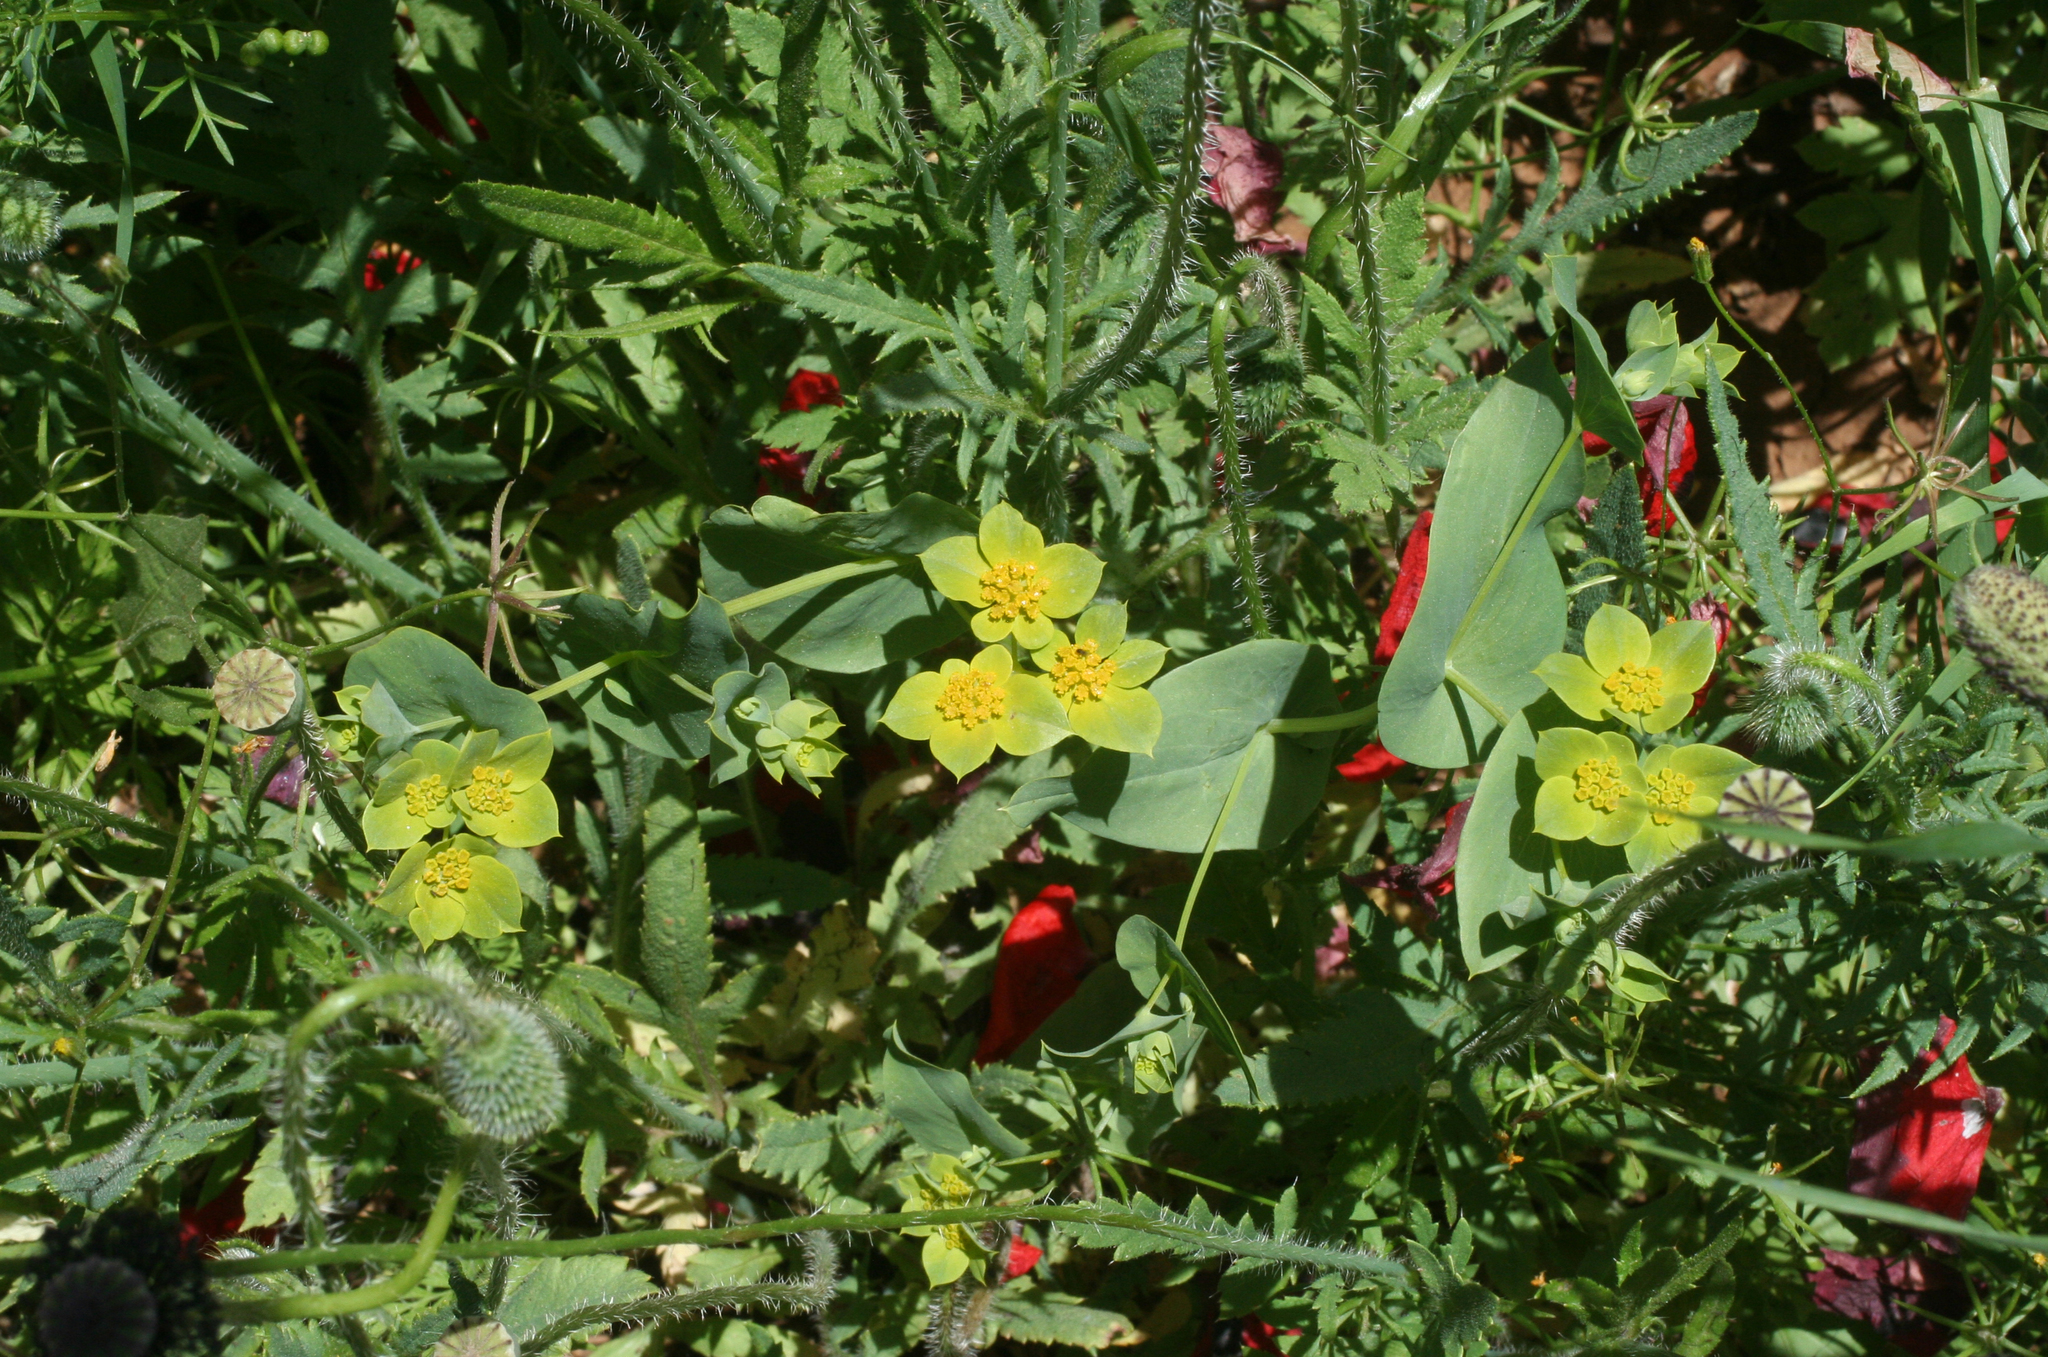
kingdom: Plantae
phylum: Tracheophyta
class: Magnoliopsida
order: Apiales
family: Apiaceae
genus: Bupleurum
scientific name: Bupleurum subovatum
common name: False thorow-wax
